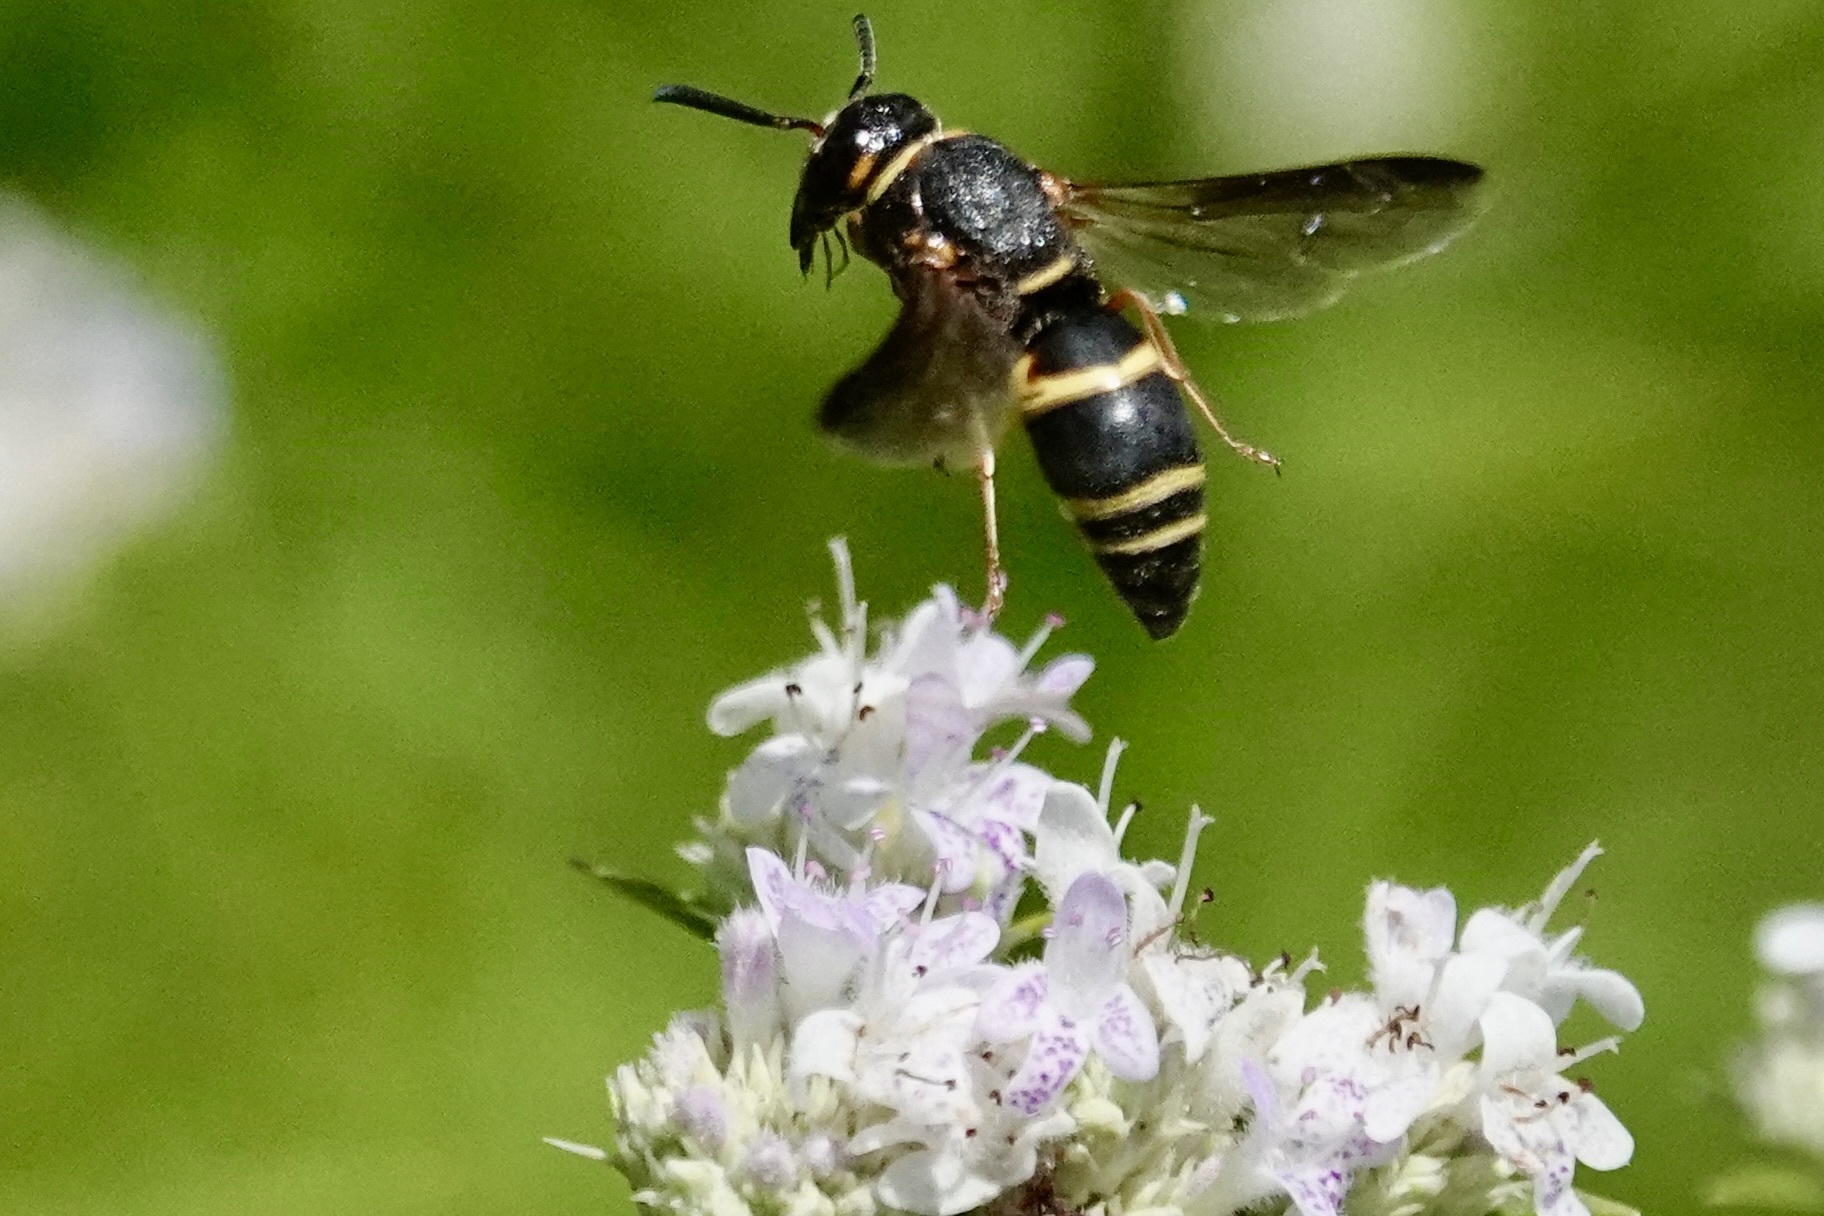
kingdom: Animalia
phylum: Arthropoda
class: Insecta
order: Hymenoptera
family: Eumenidae
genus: Euodynerus
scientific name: Euodynerus hidalgo
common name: Wasp
